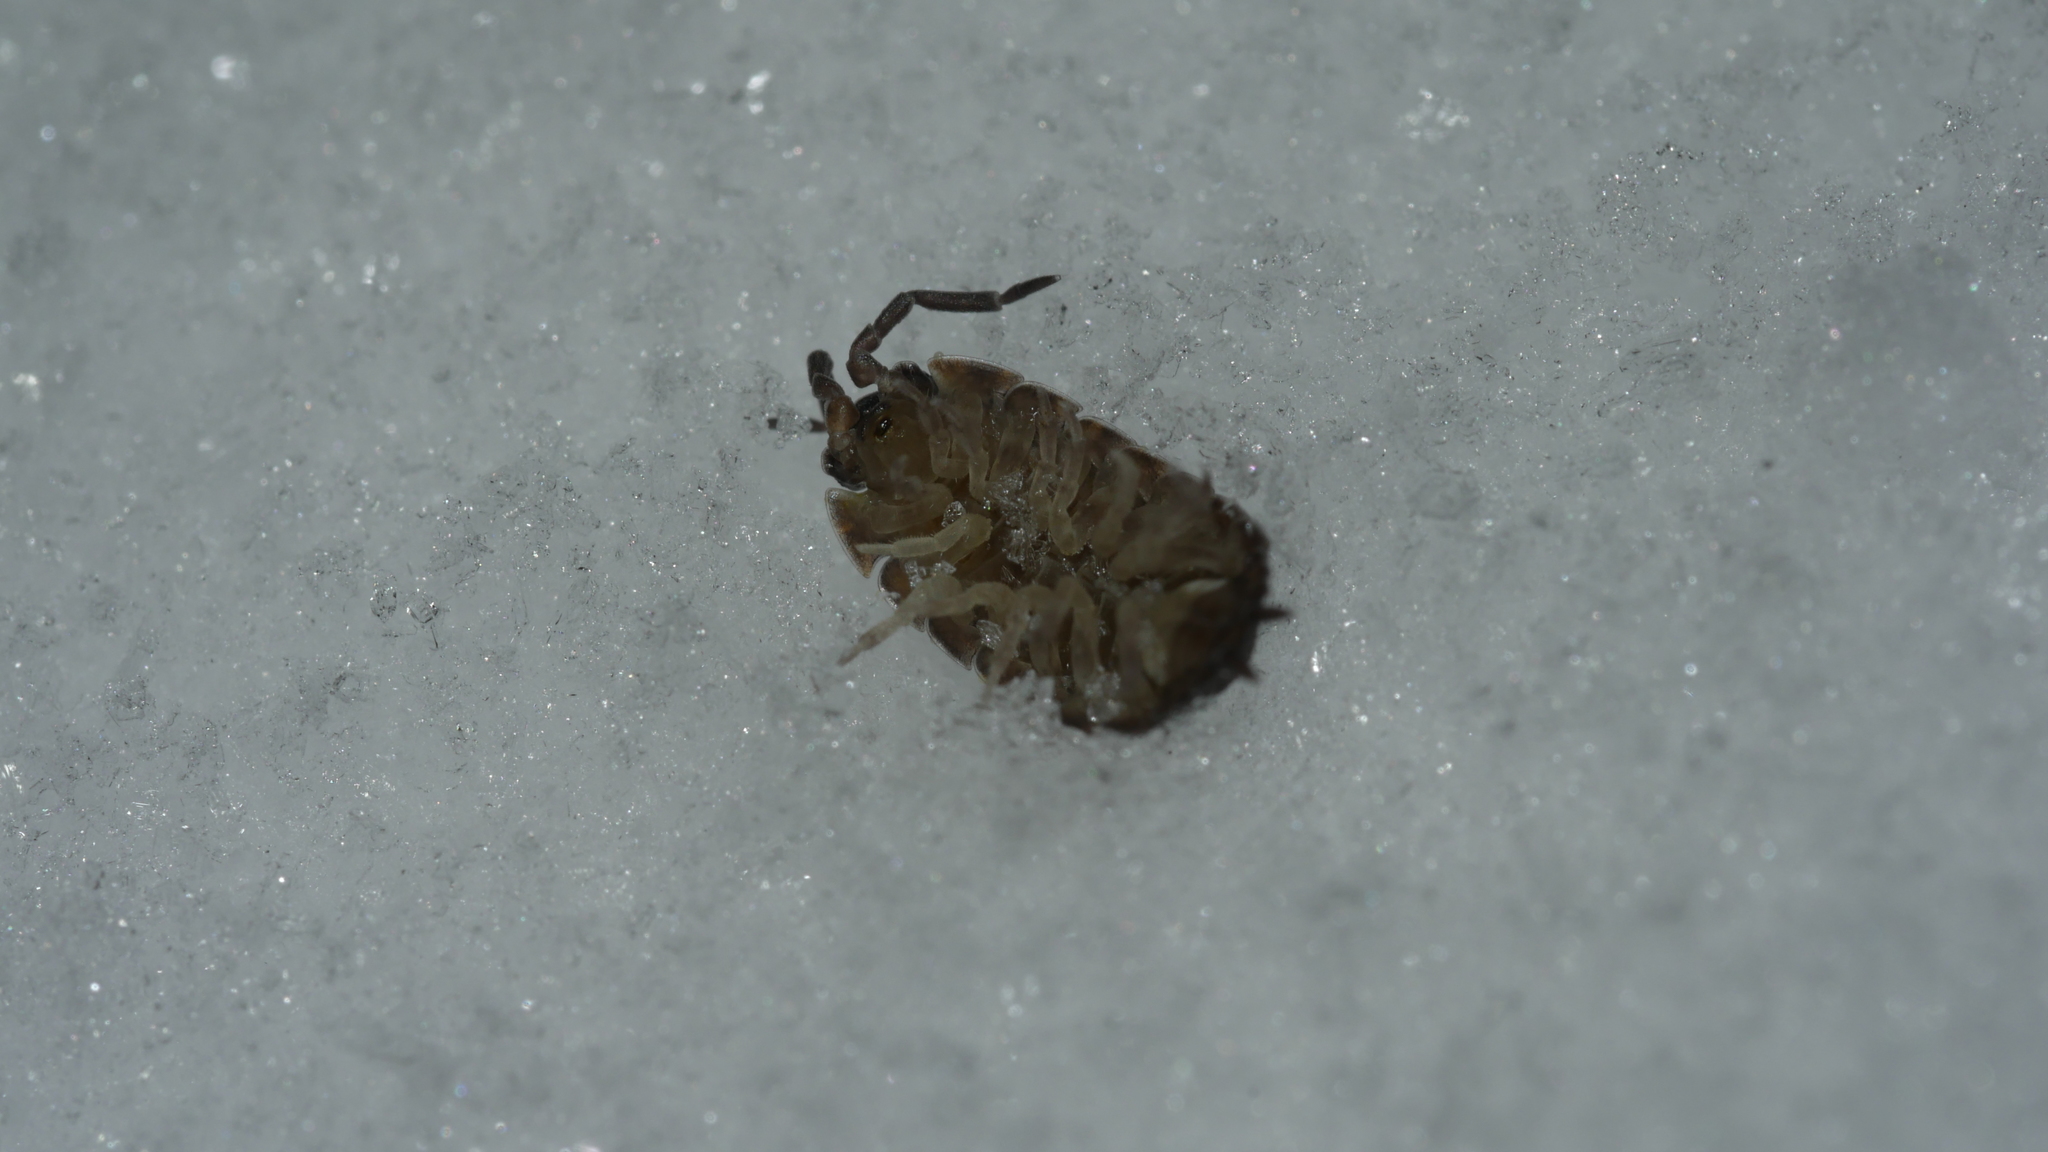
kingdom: Animalia
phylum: Arthropoda
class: Malacostraca
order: Isopoda
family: Porcellionidae
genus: Porcellio
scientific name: Porcellio scaber
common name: Common rough woodlouse
